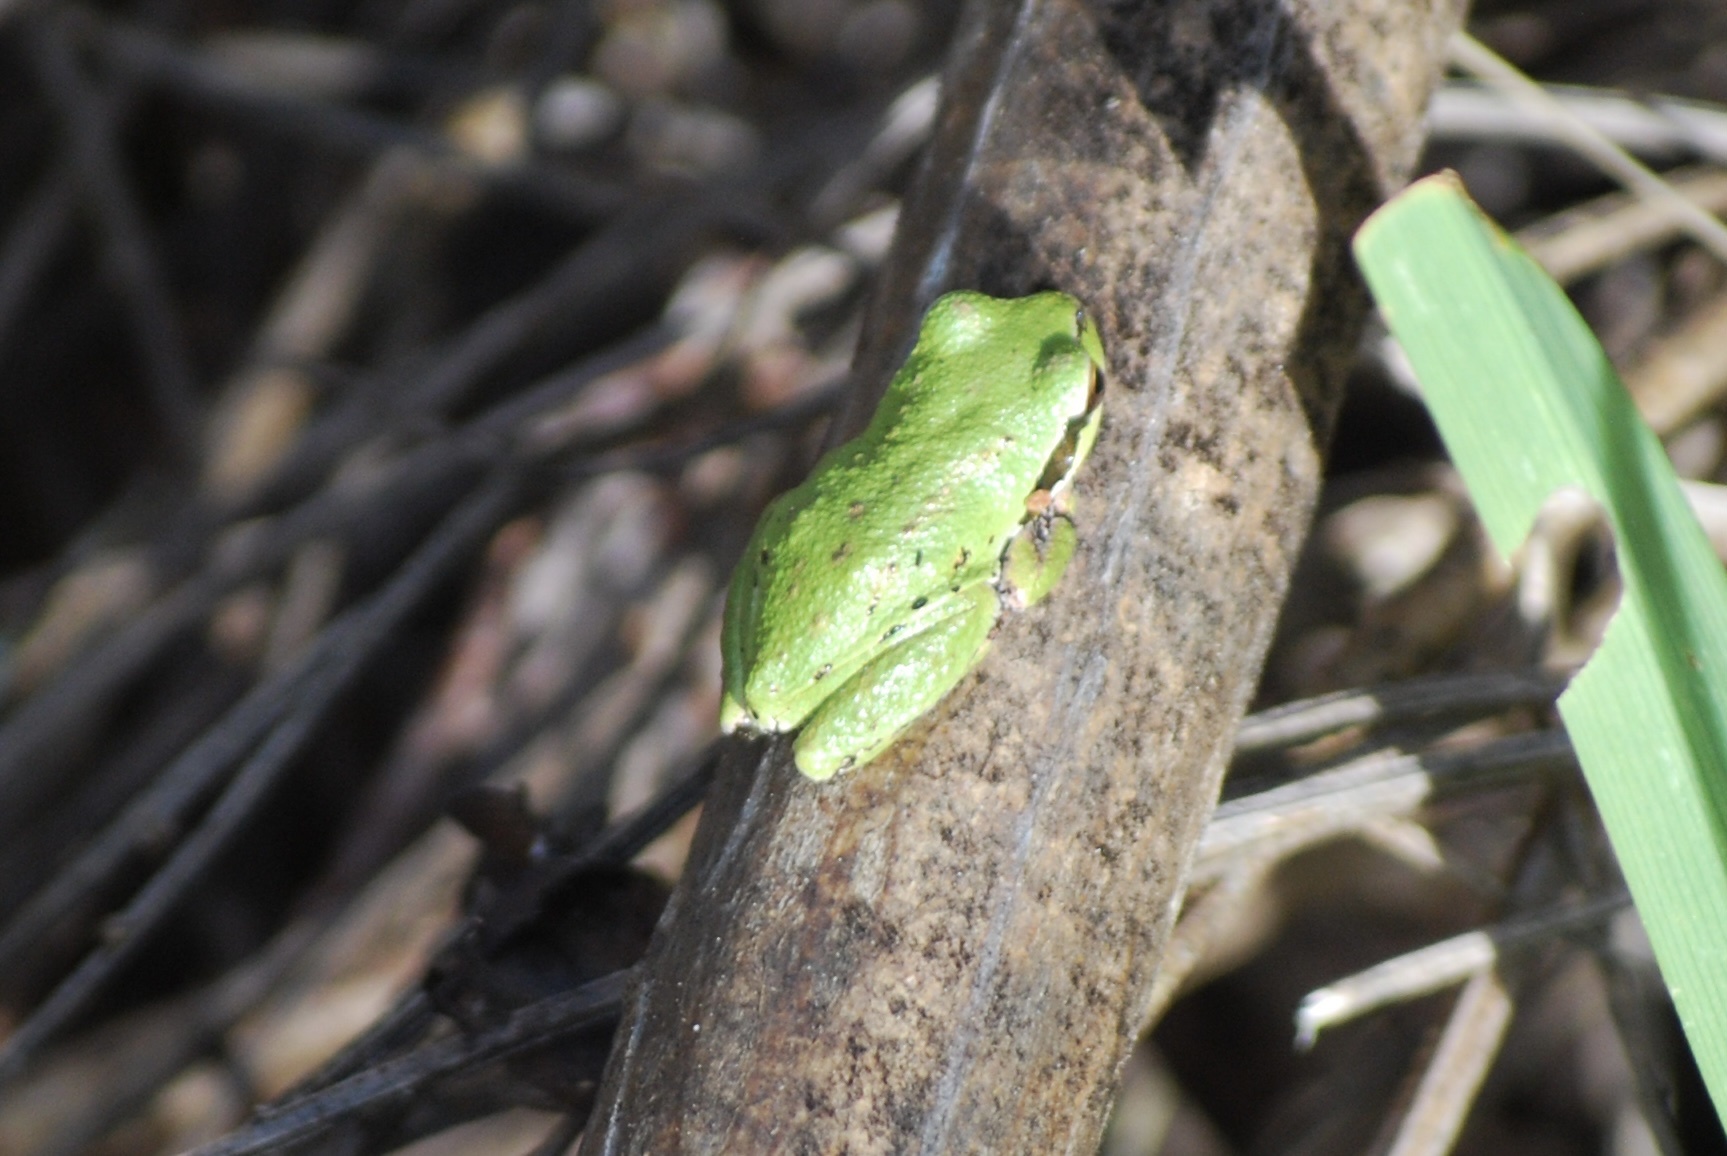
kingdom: Animalia
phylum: Chordata
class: Amphibia
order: Anura
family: Hylidae
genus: Pseudacris
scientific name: Pseudacris regilla
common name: Pacific chorus frog
